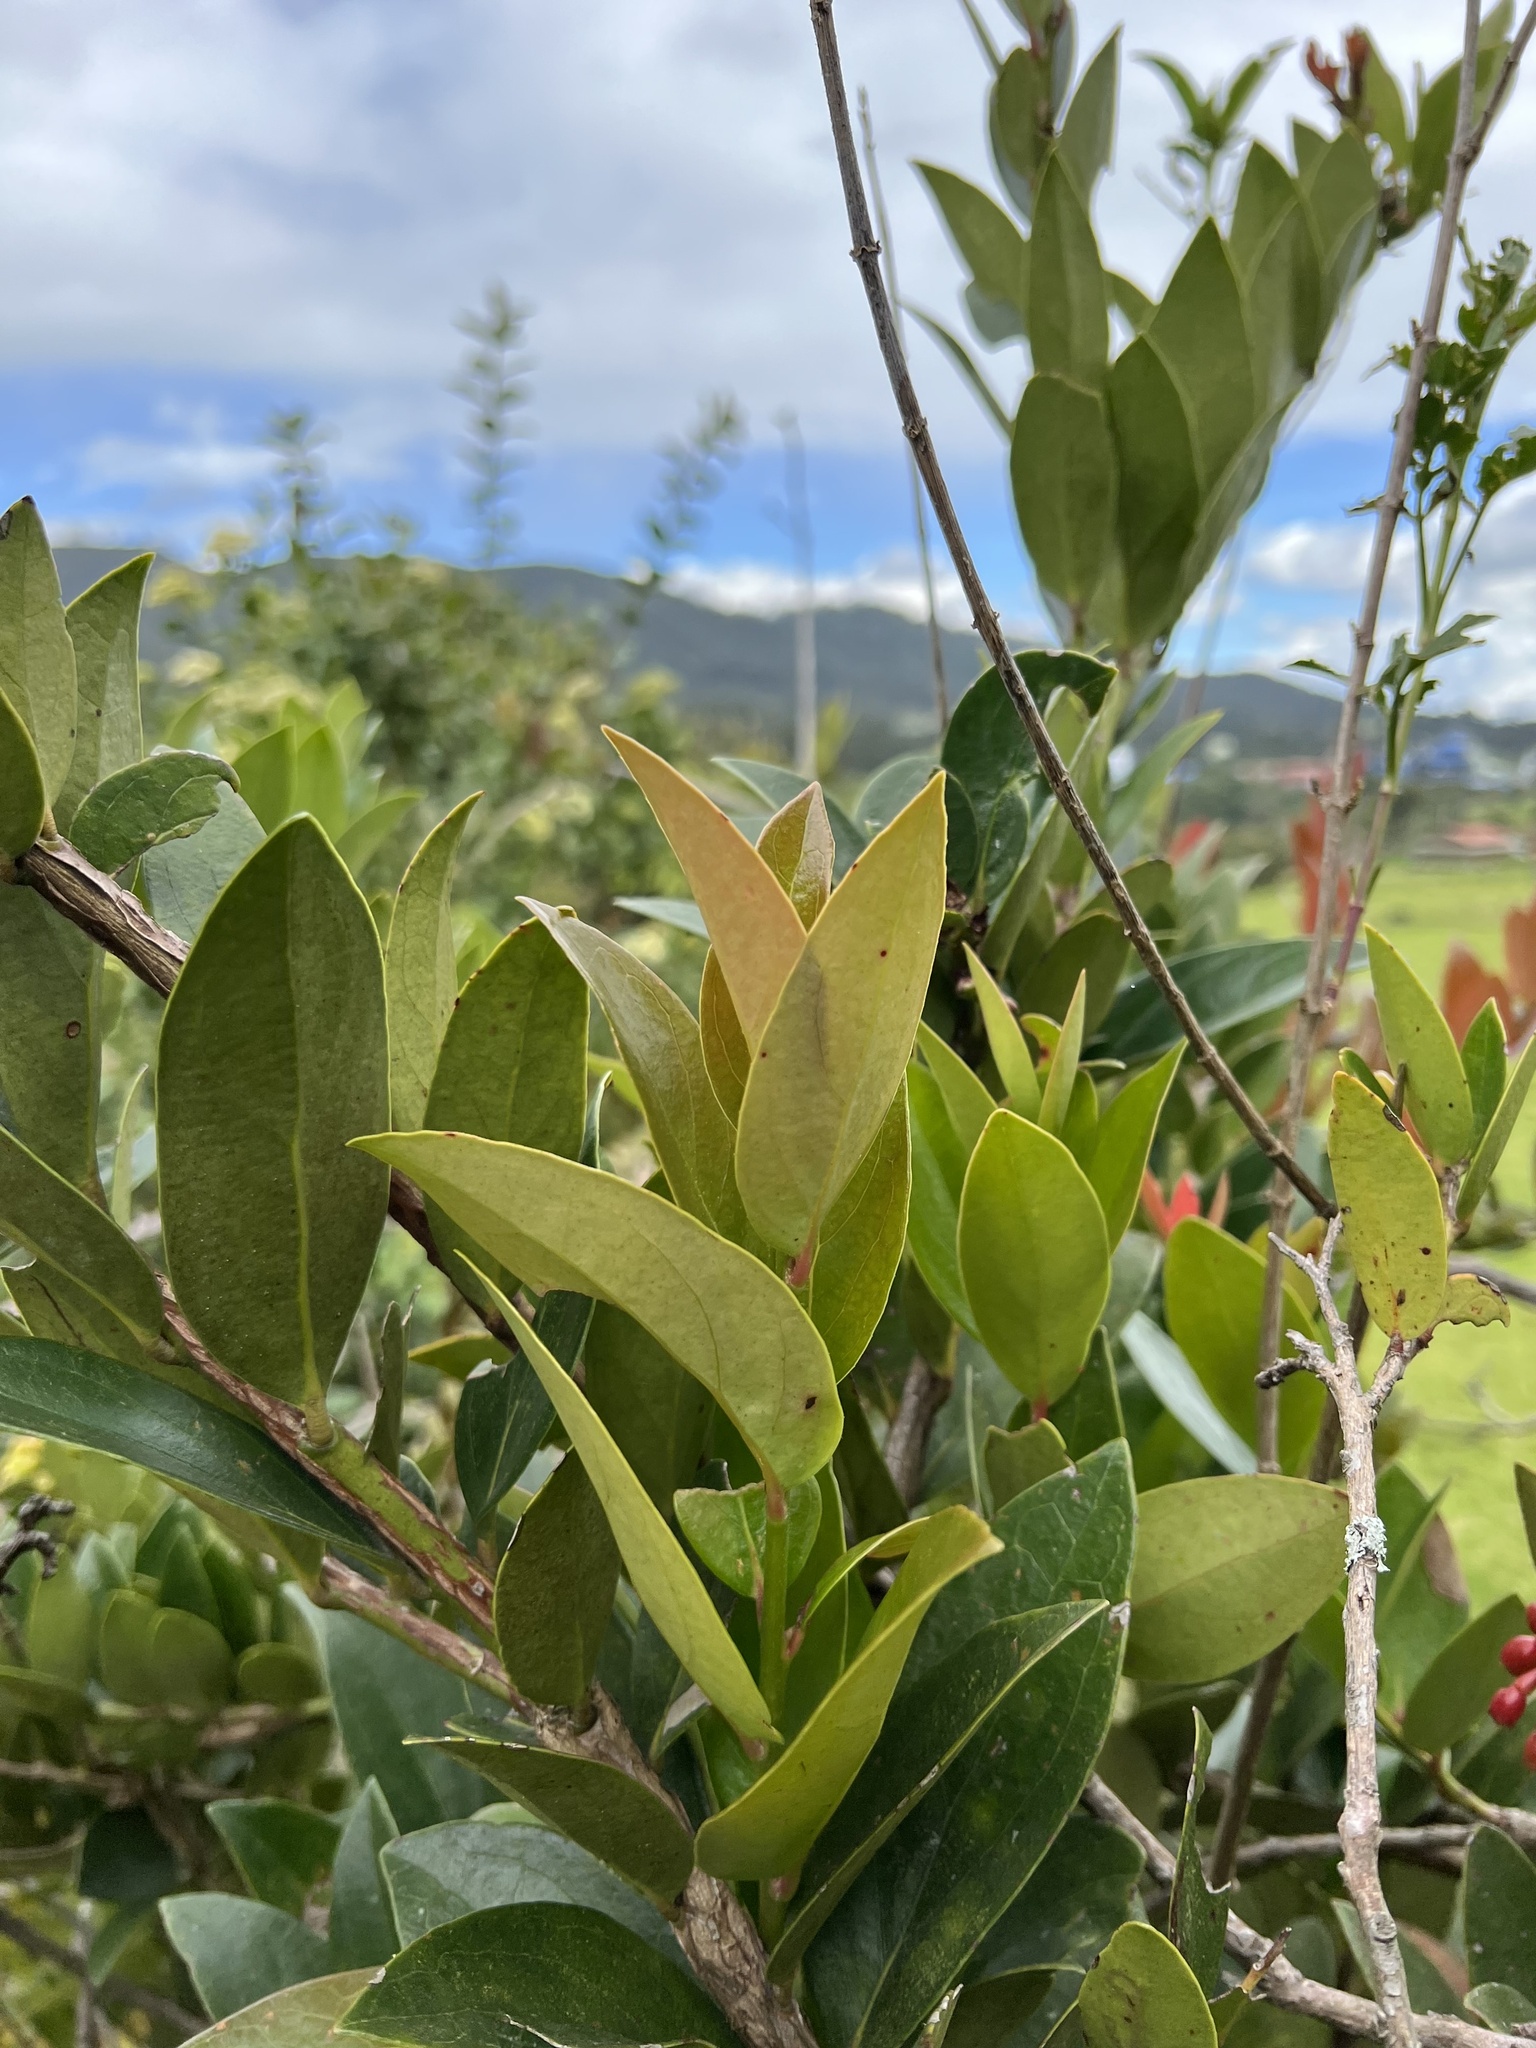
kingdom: Plantae
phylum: Tracheophyta
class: Magnoliopsida
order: Ericales
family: Ericaceae
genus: Macleania
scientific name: Macleania rupestris
